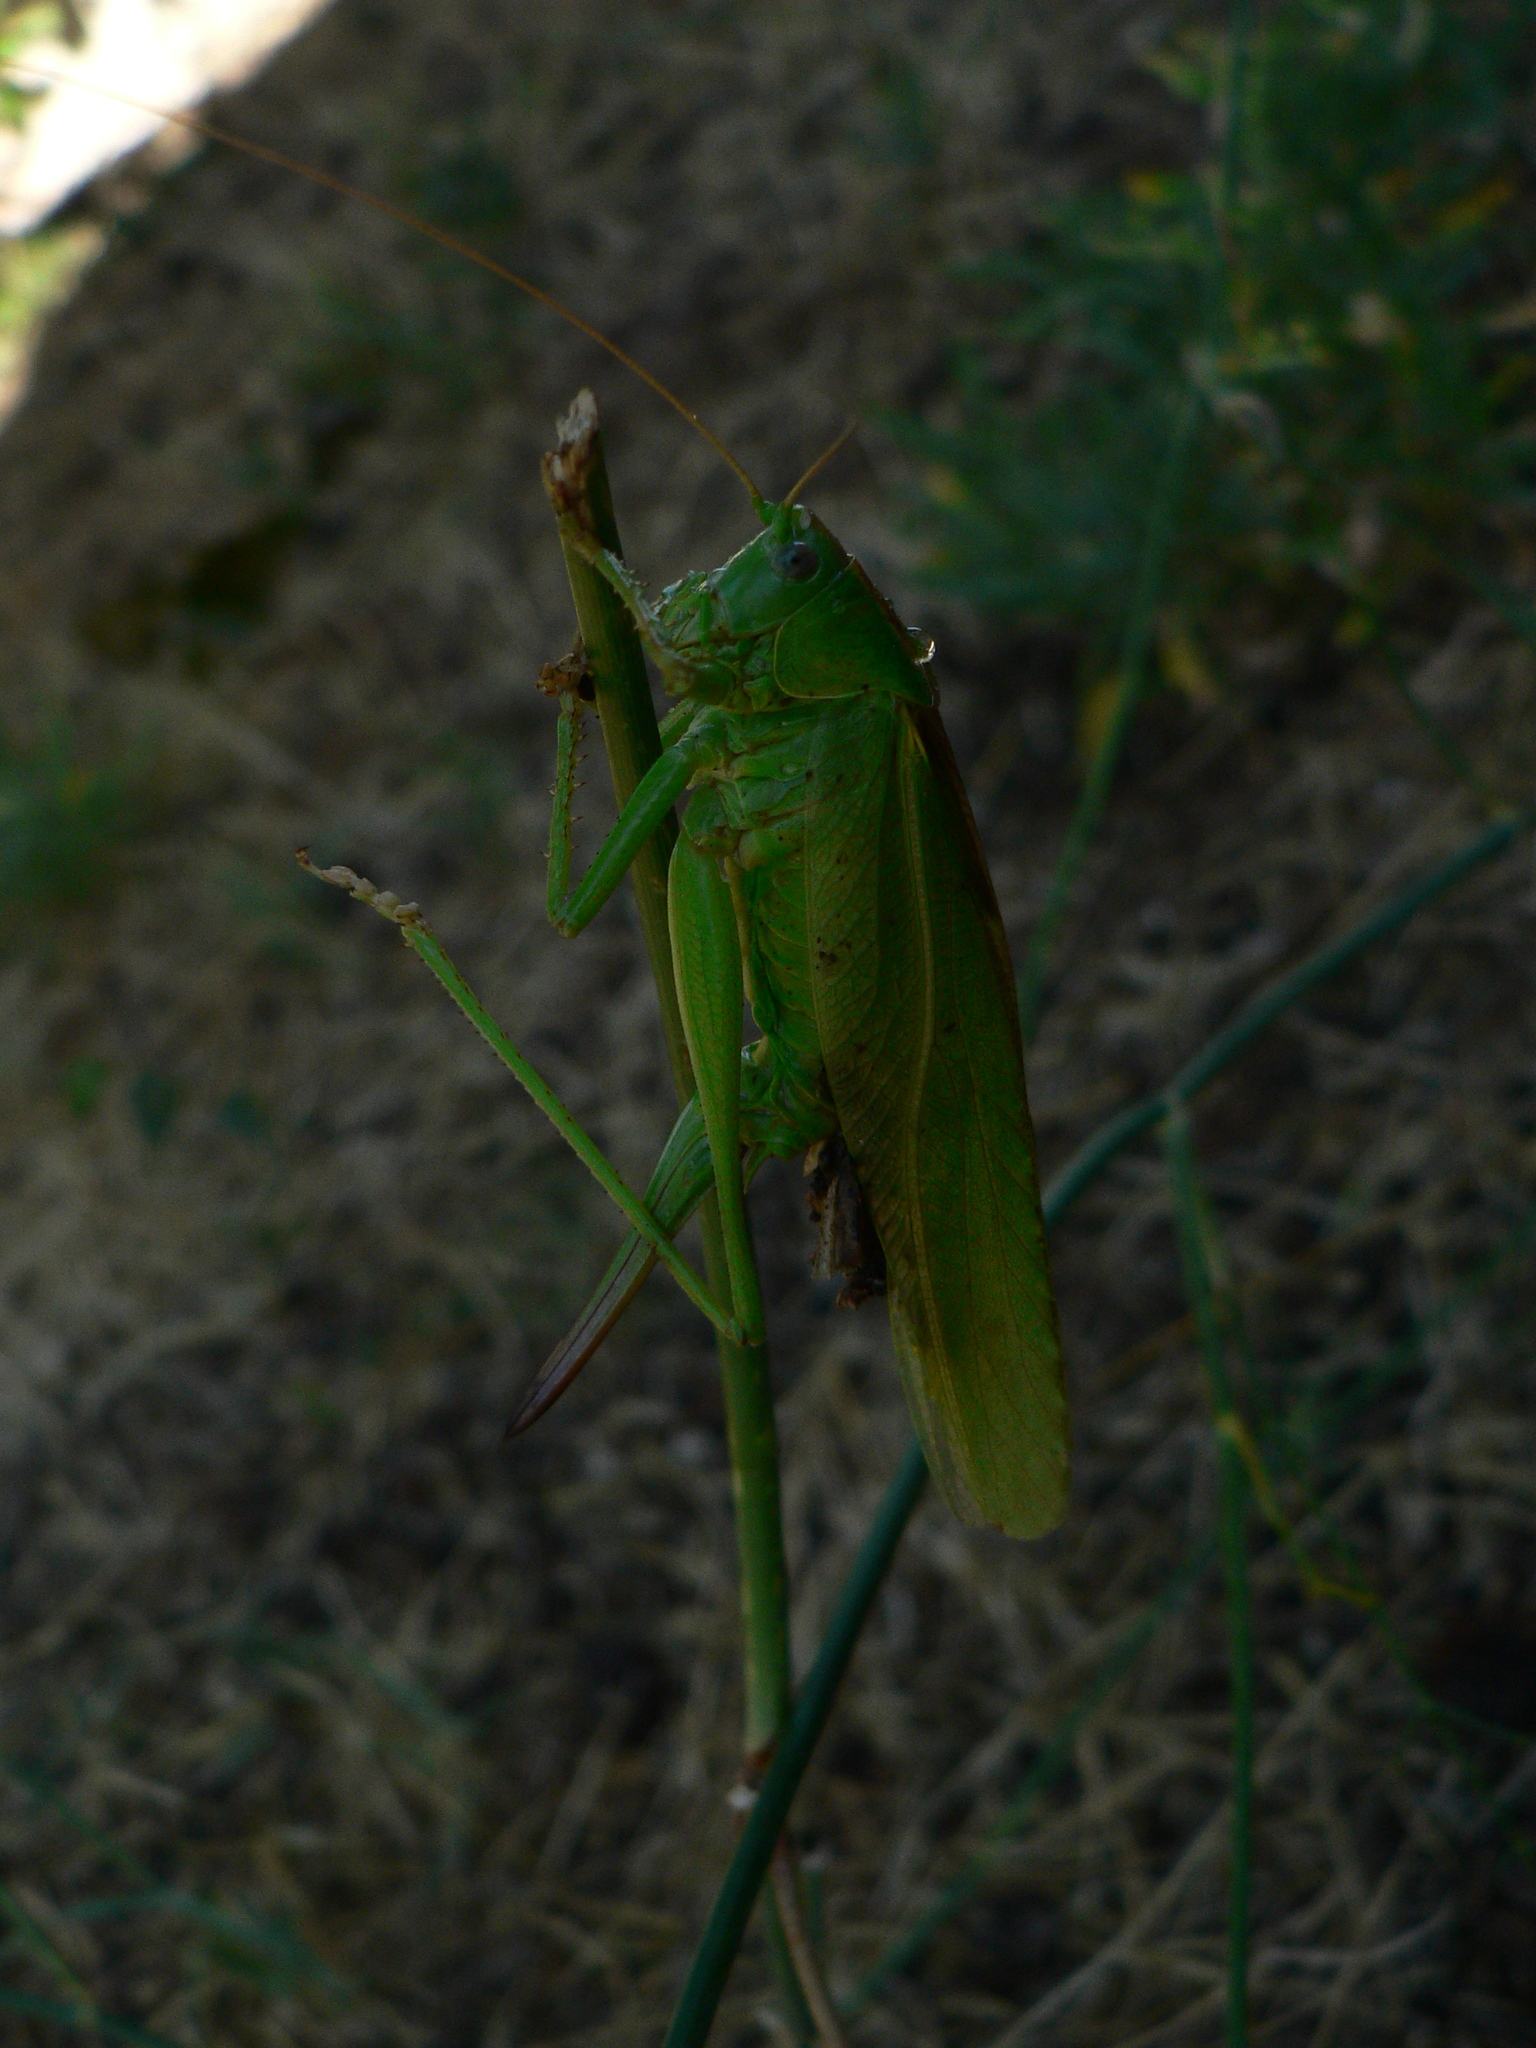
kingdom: Animalia
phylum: Arthropoda
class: Insecta
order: Orthoptera
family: Tettigoniidae
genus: Tettigonia
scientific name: Tettigonia viridissima
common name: Great green bush-cricket
